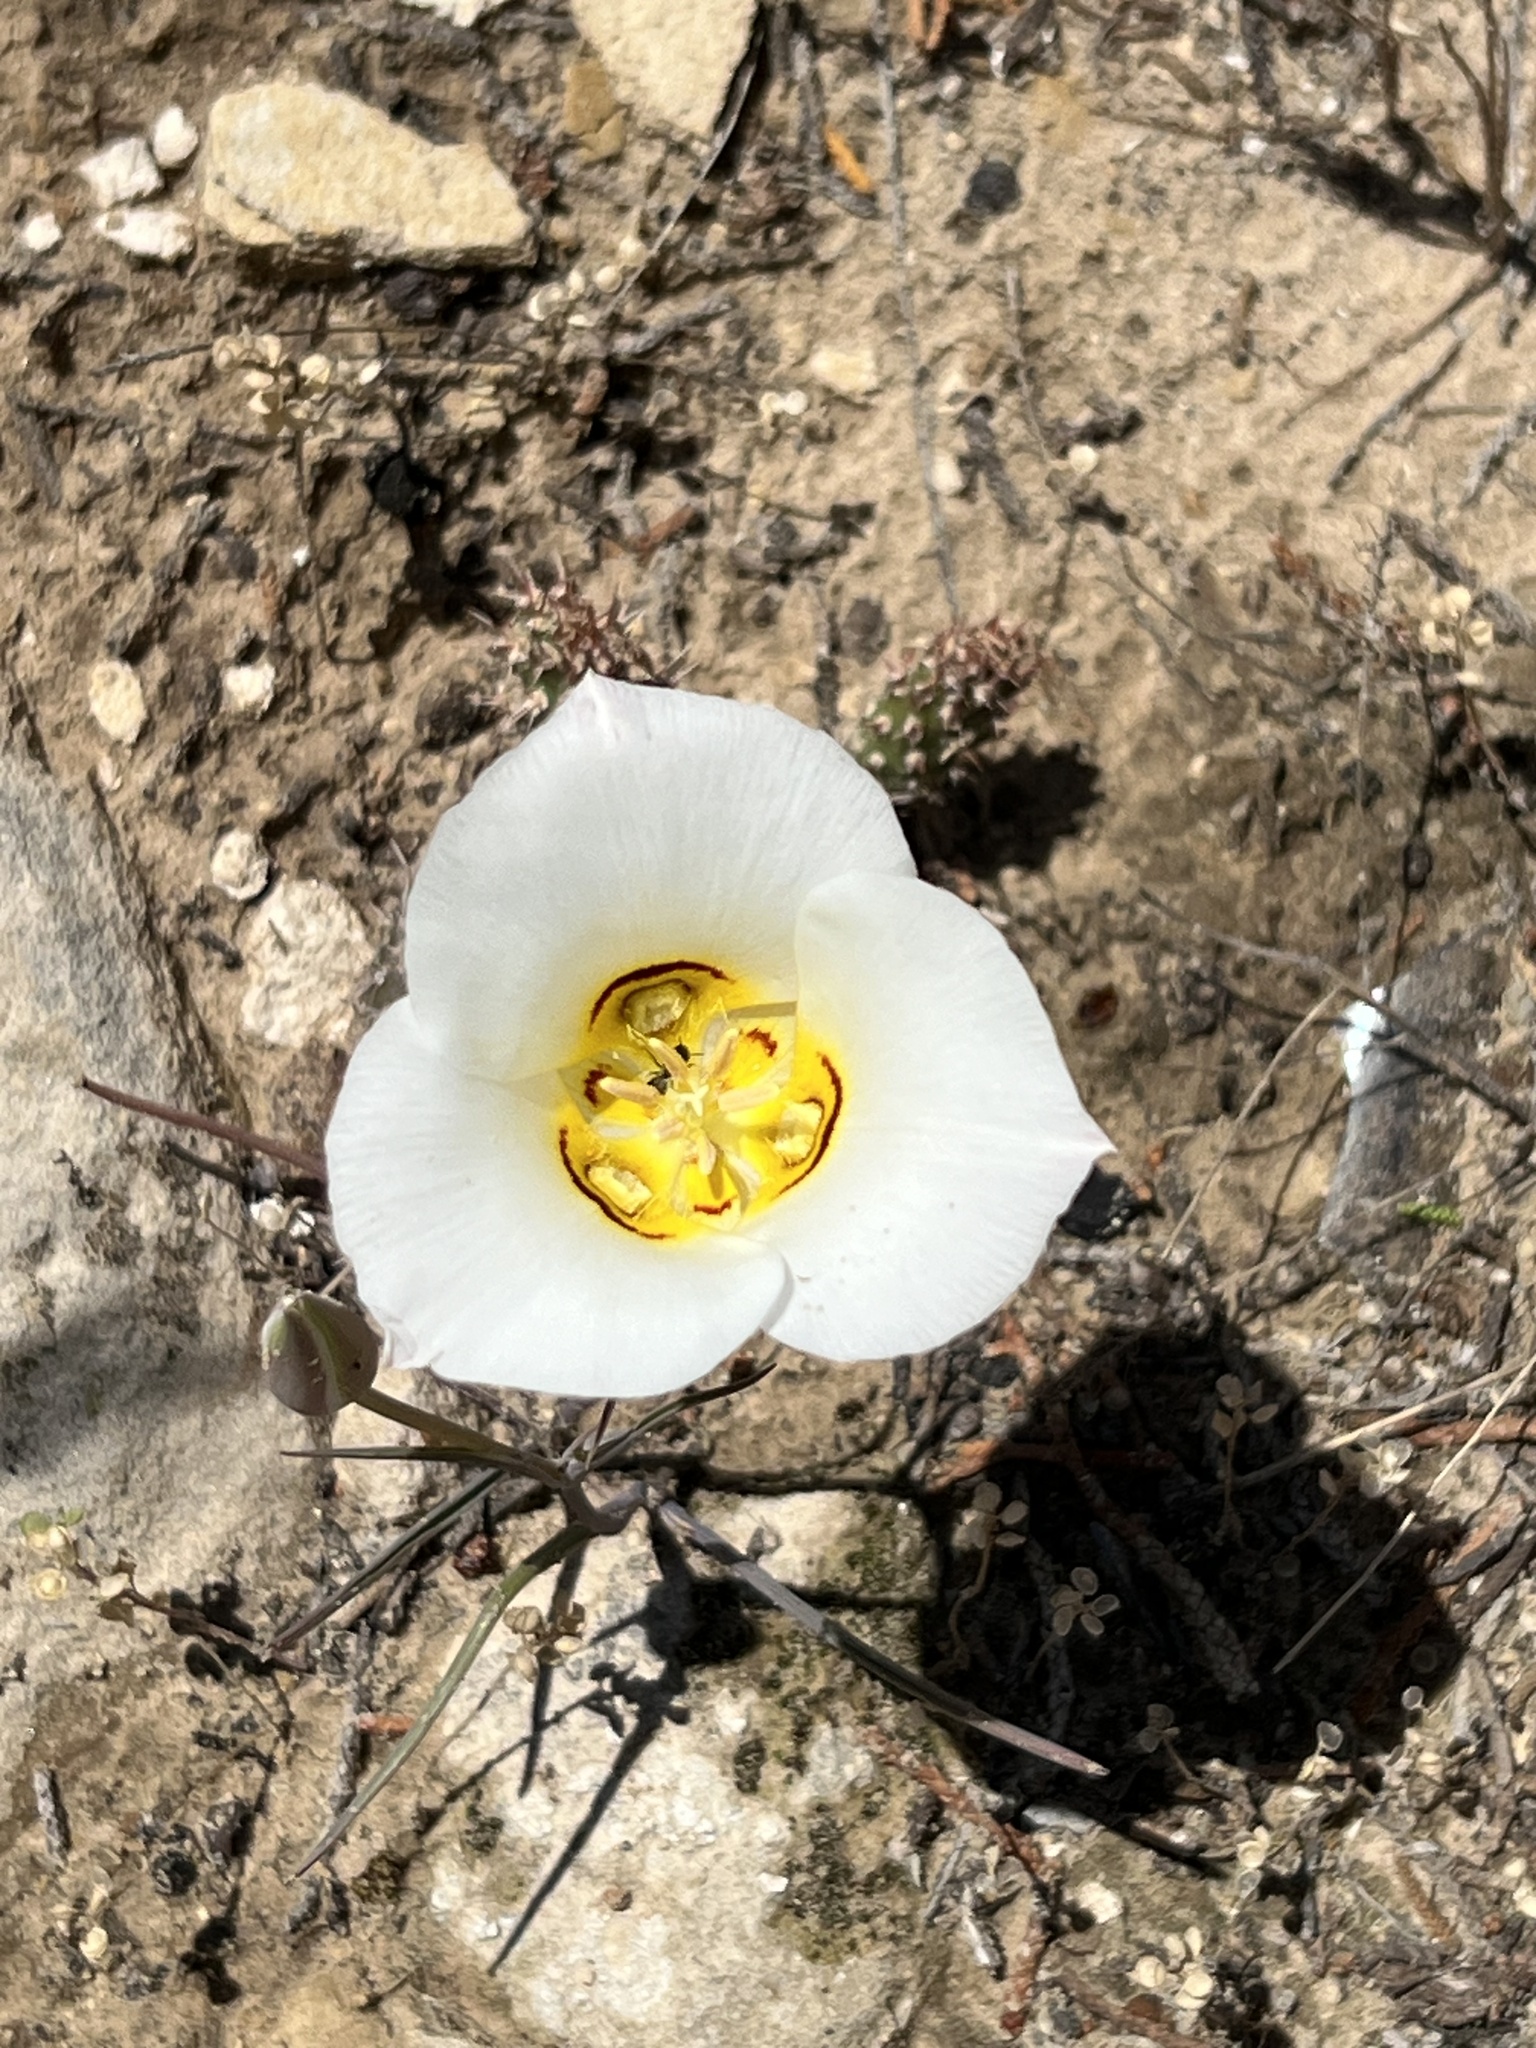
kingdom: Plantae
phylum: Tracheophyta
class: Liliopsida
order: Liliales
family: Liliaceae
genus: Calochortus
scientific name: Calochortus nuttallii
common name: Sego-lily
